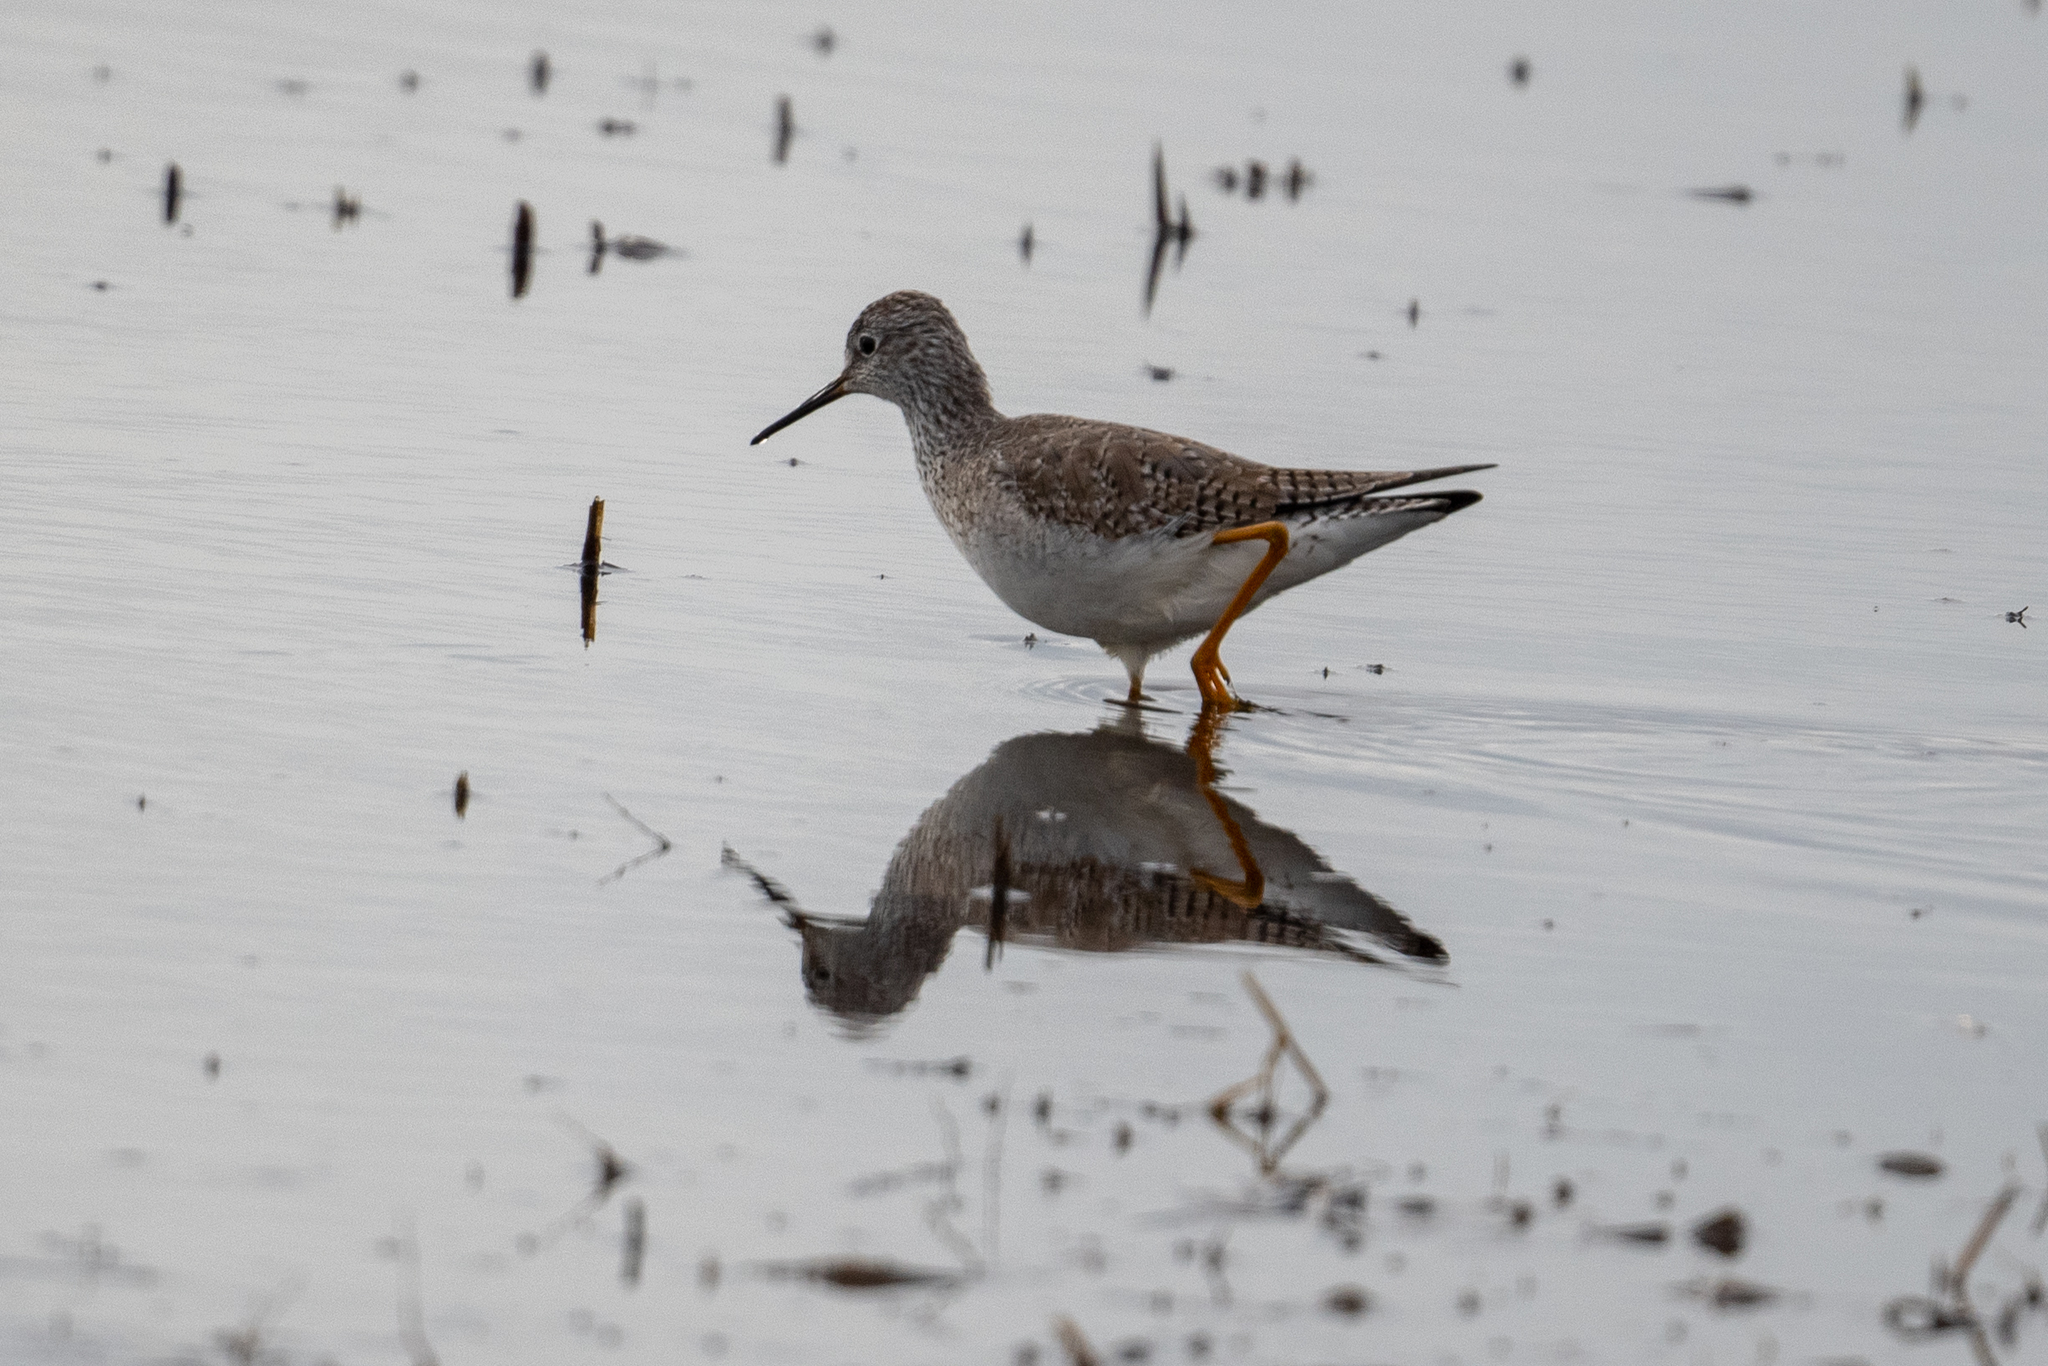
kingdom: Animalia
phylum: Chordata
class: Aves
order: Charadriiformes
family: Scolopacidae
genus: Tringa
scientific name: Tringa flavipes
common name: Lesser yellowlegs
